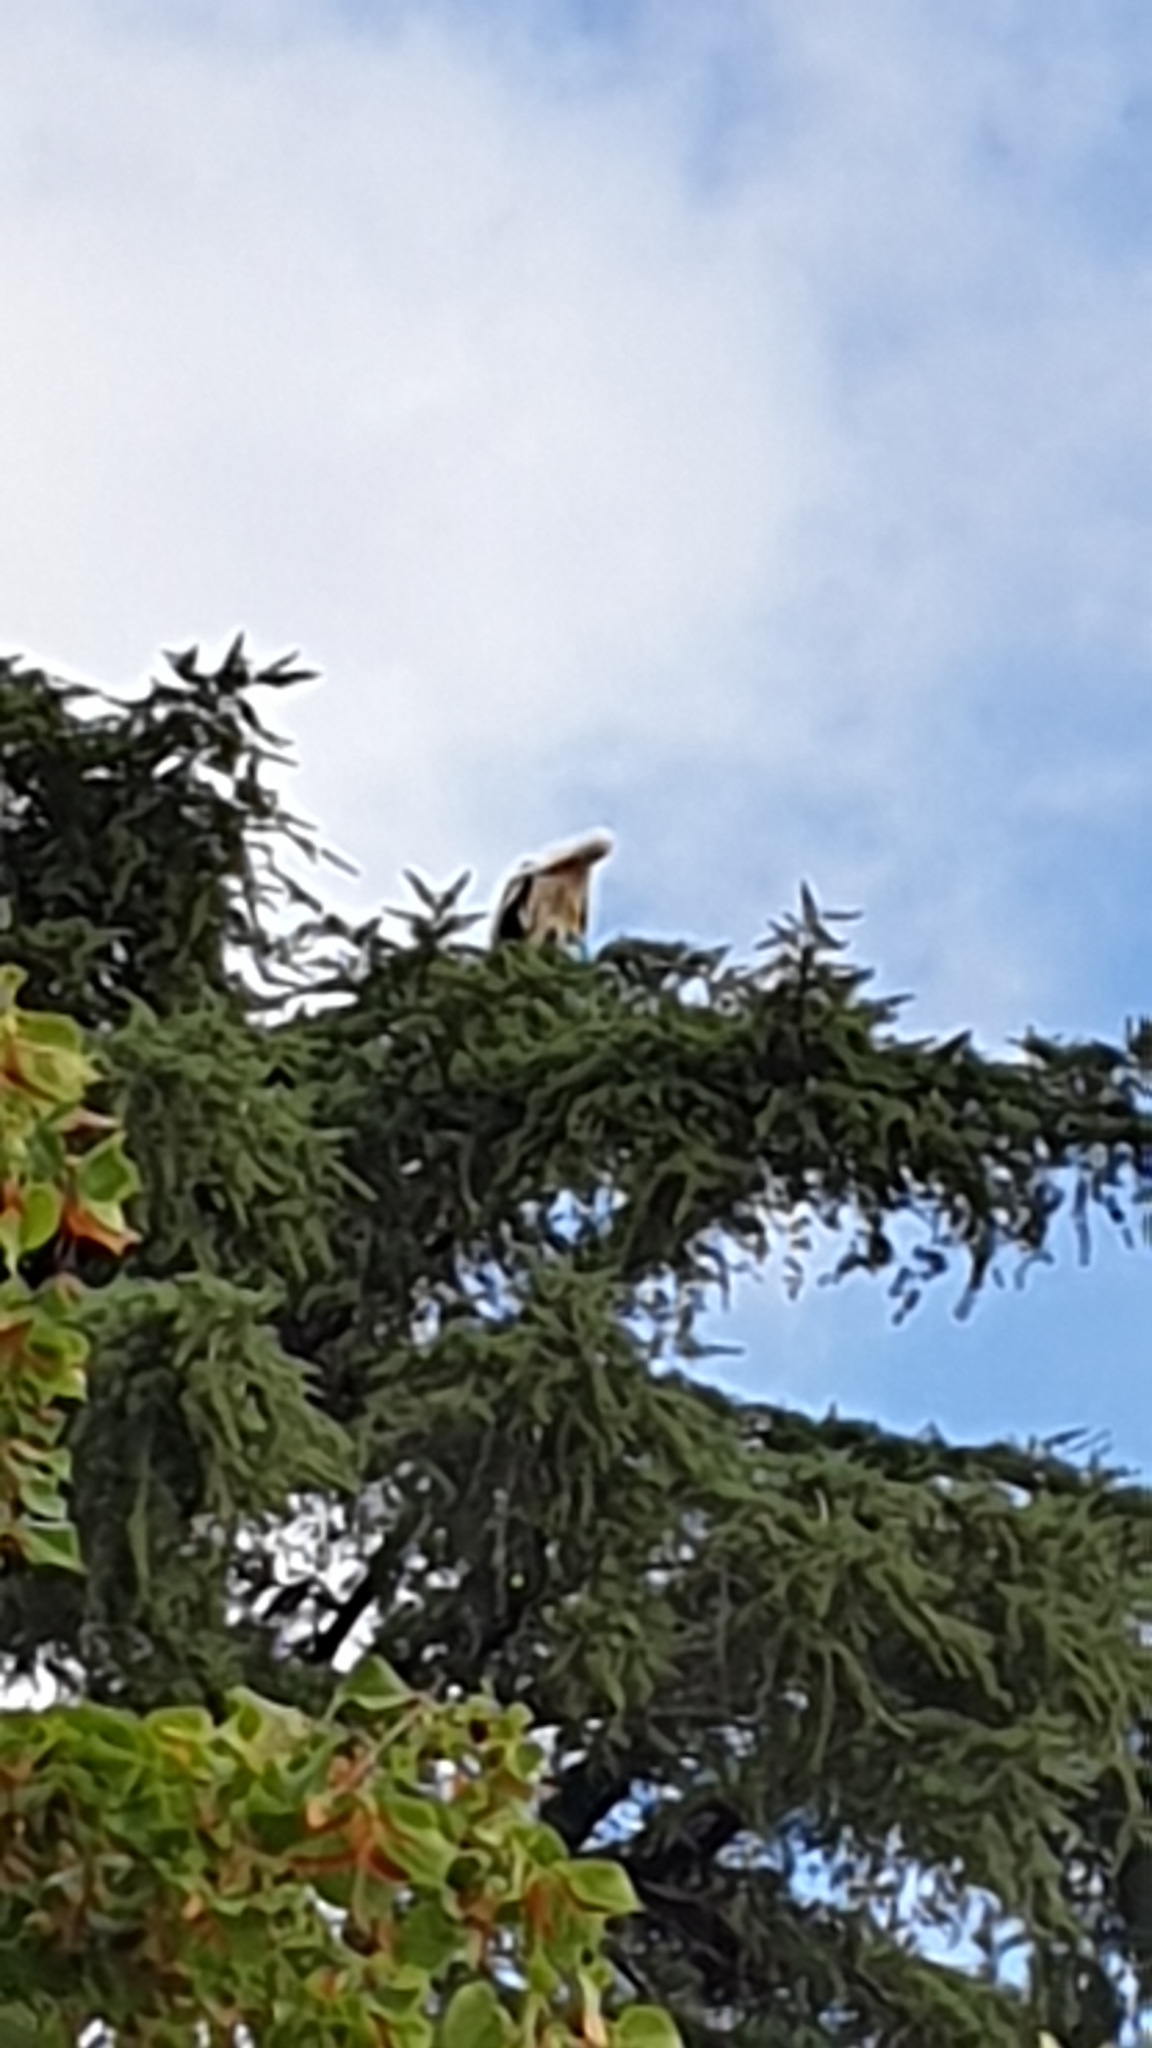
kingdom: Animalia
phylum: Chordata
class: Aves
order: Ciconiiformes
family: Ciconiidae
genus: Ciconia
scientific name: Ciconia ciconia
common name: White stork
